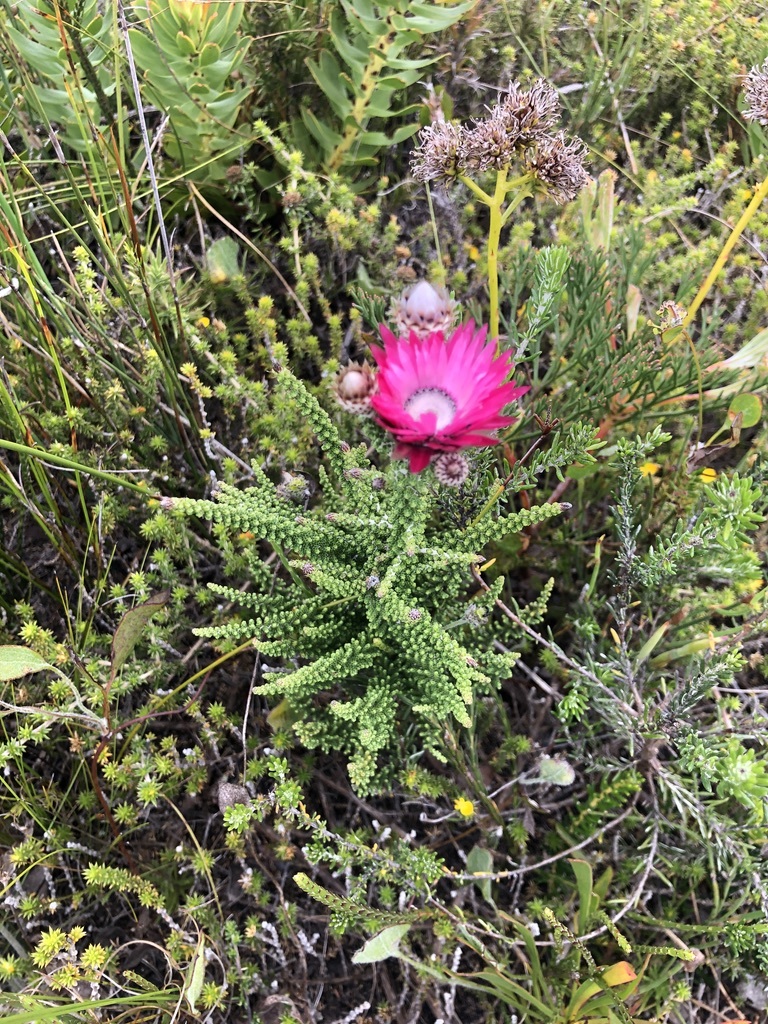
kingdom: Plantae
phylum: Tracheophyta
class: Magnoliopsida
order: Asterales
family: Asteraceae
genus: Phaenocoma
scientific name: Phaenocoma prolifera
